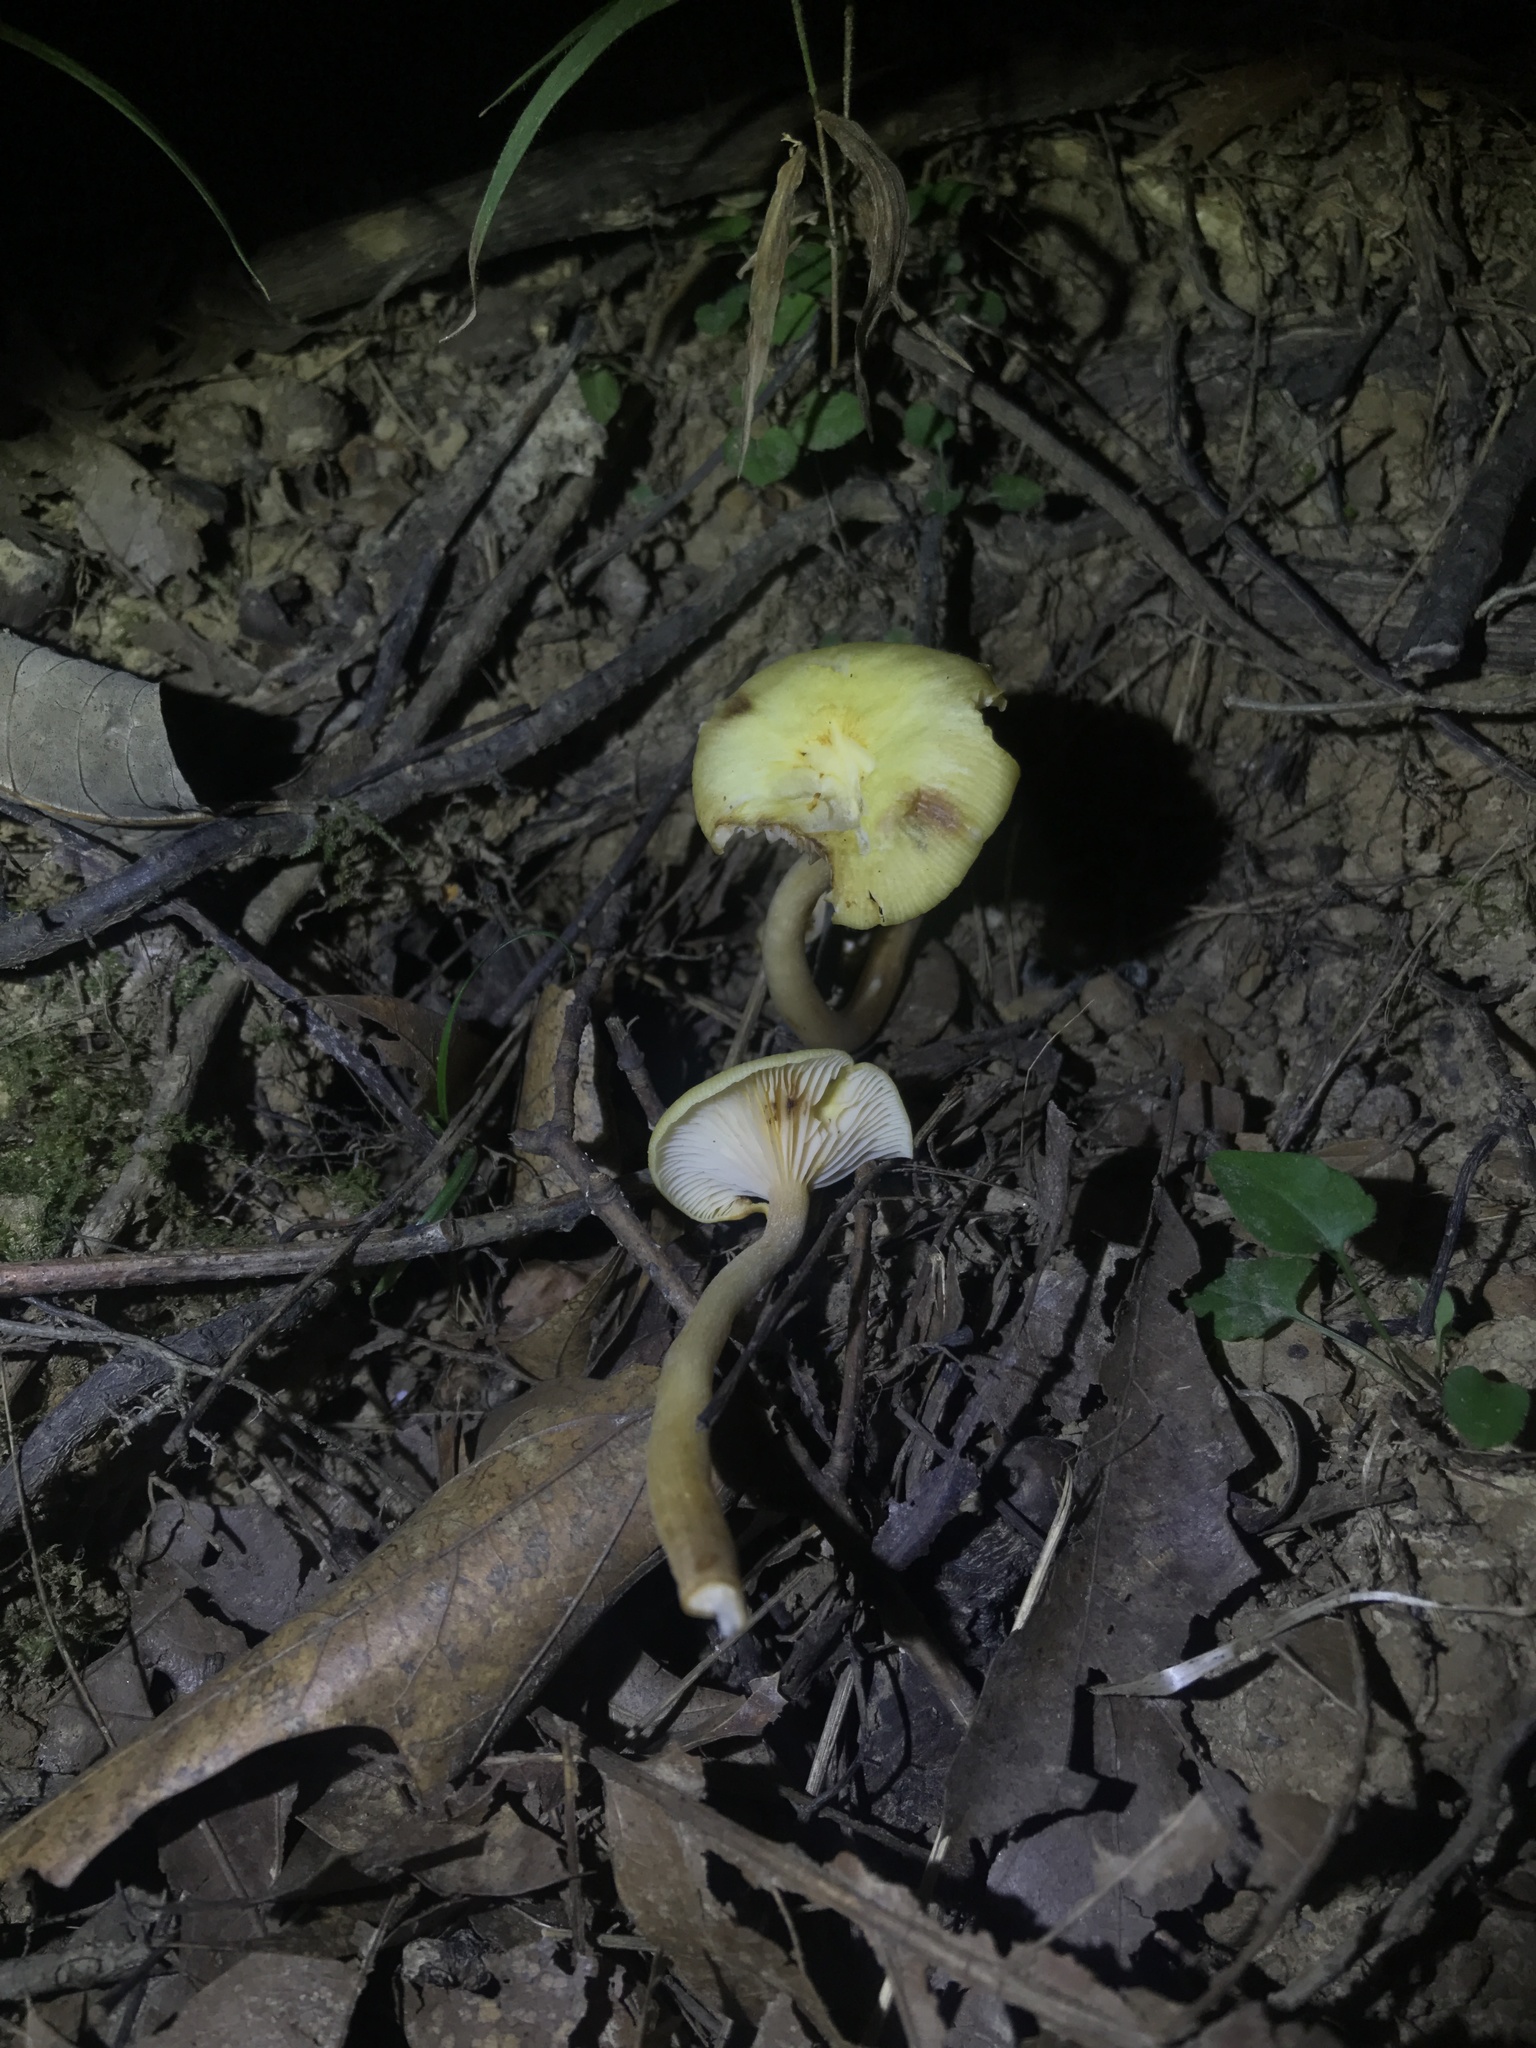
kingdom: Fungi
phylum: Basidiomycota
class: Agaricomycetes
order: Agaricales
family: Physalacriaceae
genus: Desarmillaria
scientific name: Desarmillaria caespitosa
